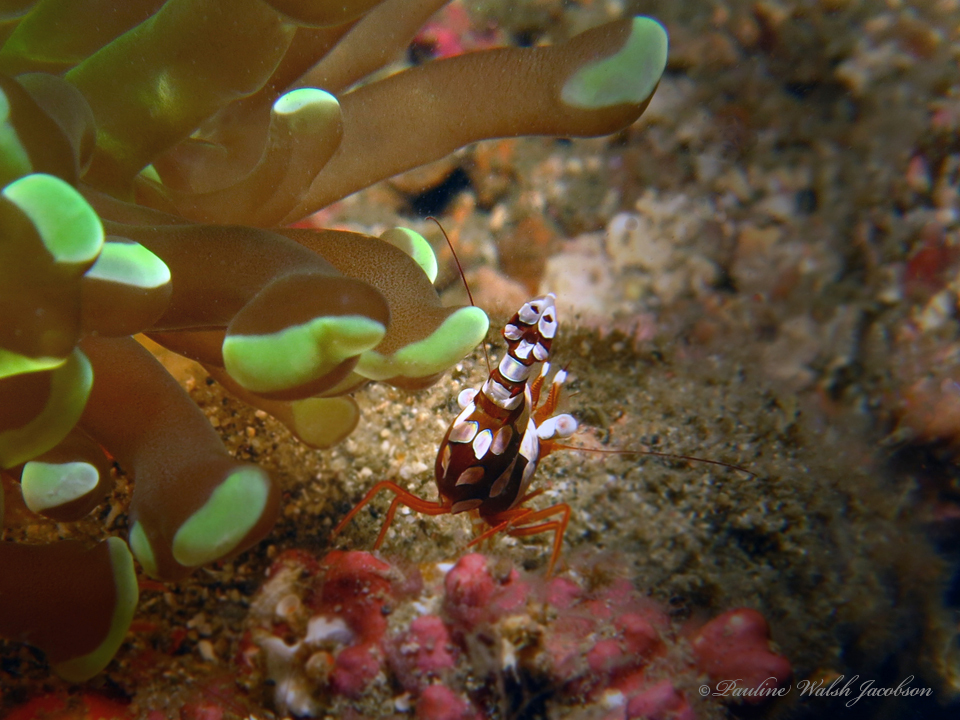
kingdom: Animalia
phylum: Arthropoda
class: Malacostraca
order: Decapoda
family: Thoridae
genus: Thor
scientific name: Thor amboinensis
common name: Squat anemone shrimp
